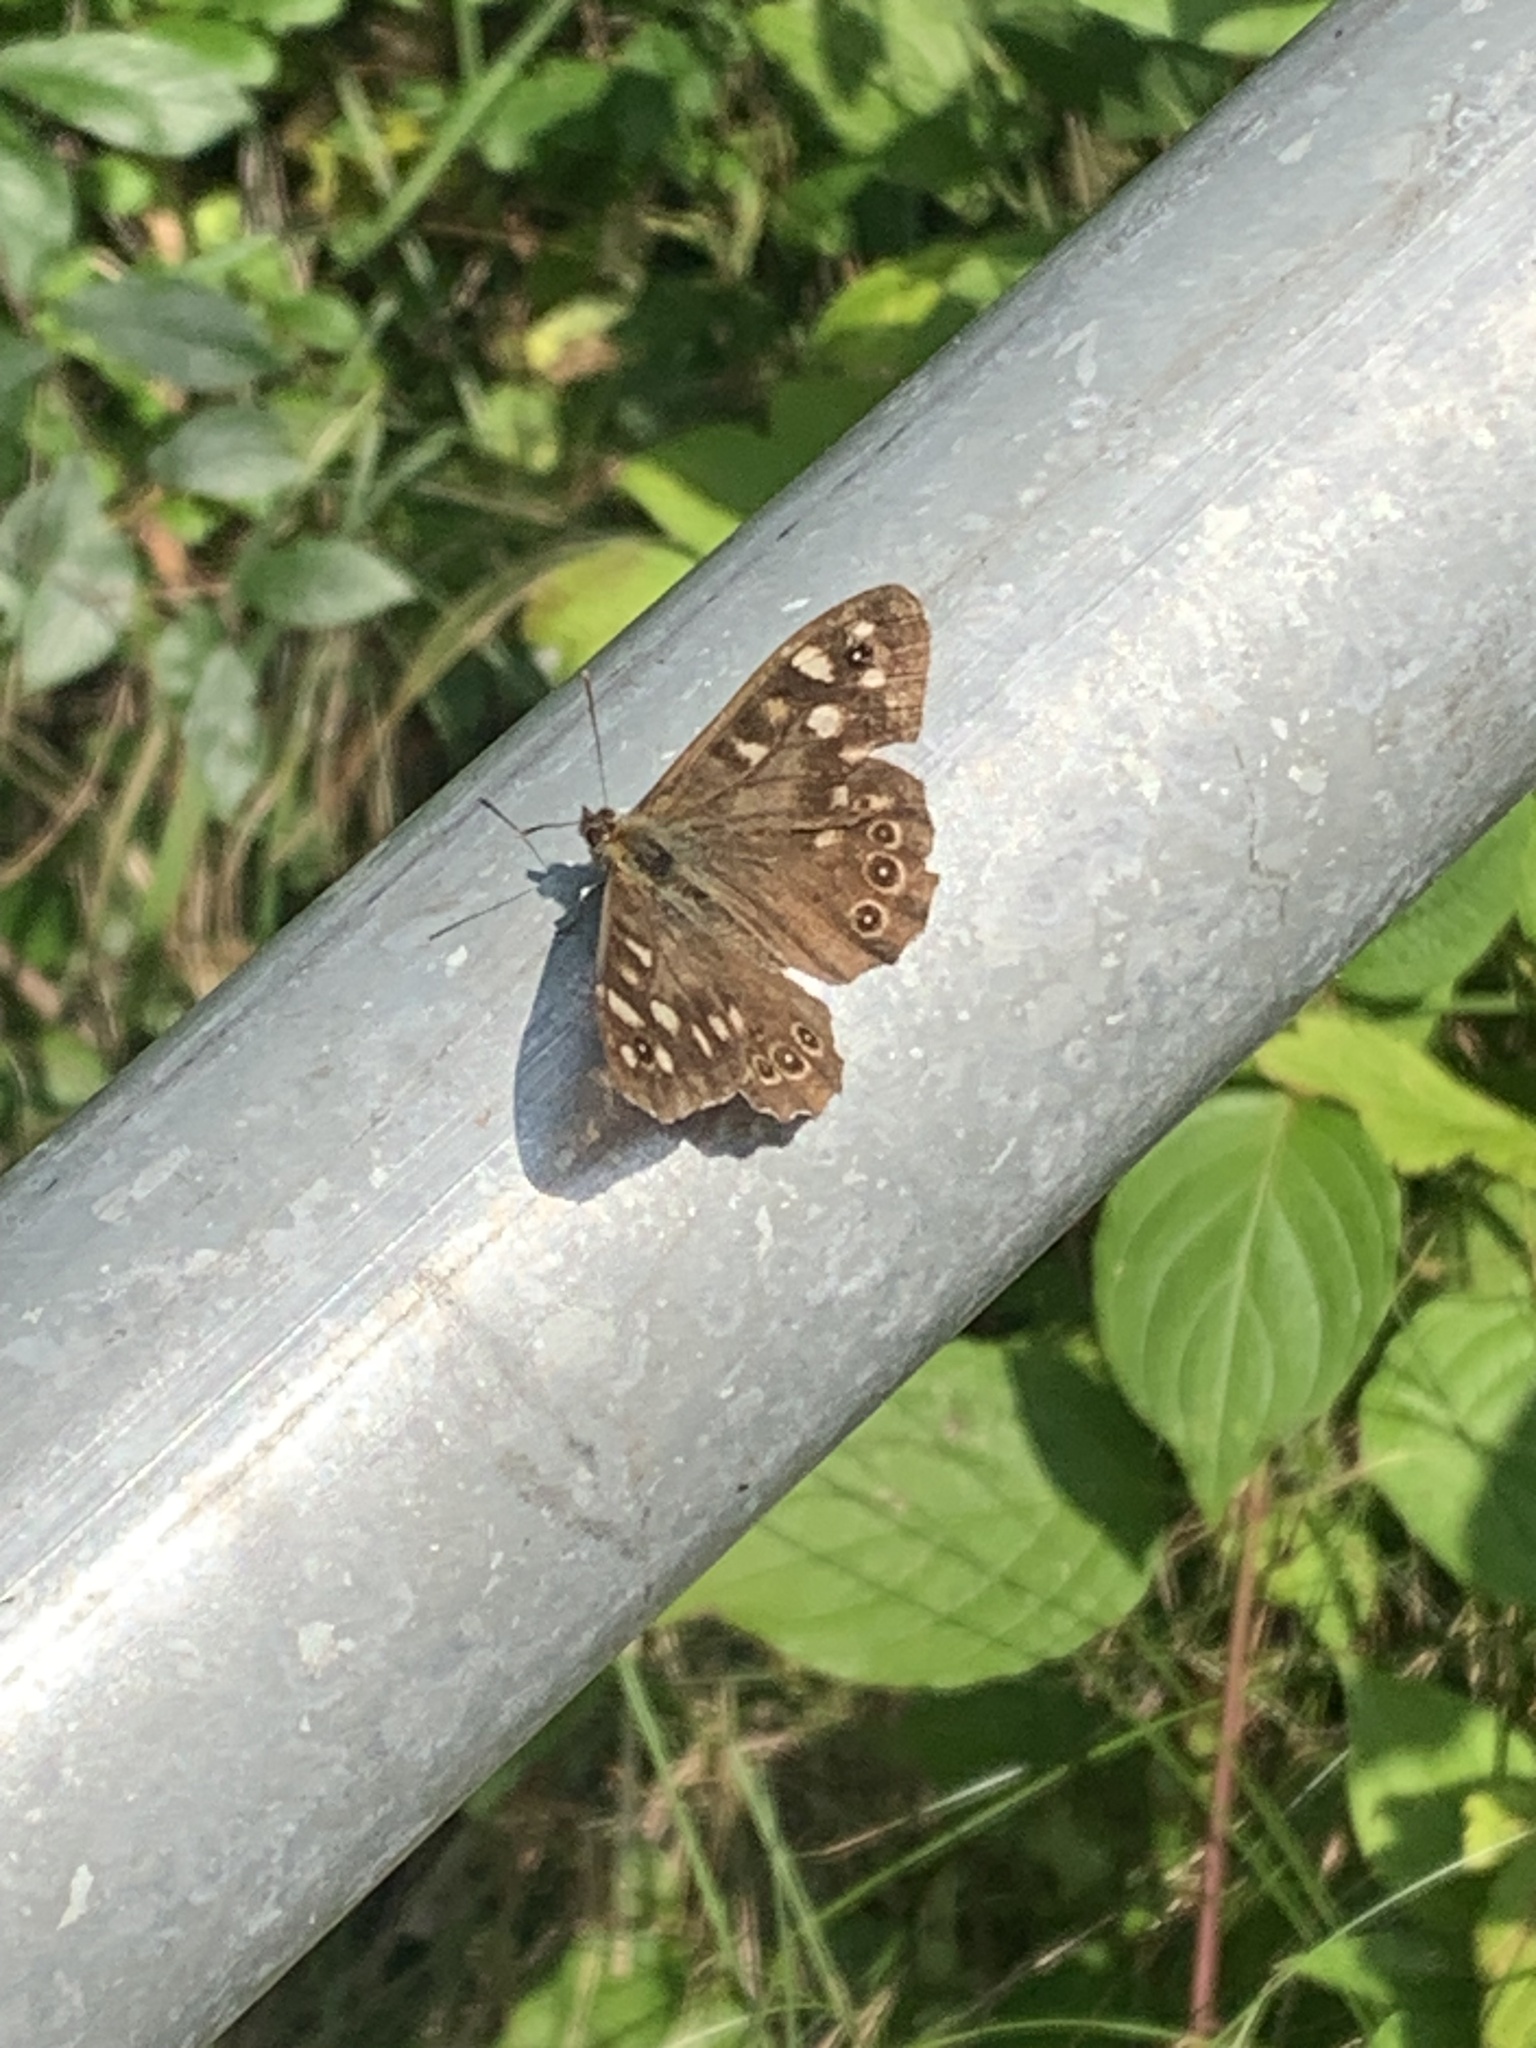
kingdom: Animalia
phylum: Arthropoda
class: Insecta
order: Lepidoptera
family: Nymphalidae
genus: Pararge
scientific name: Pararge aegeria
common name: Speckled wood
